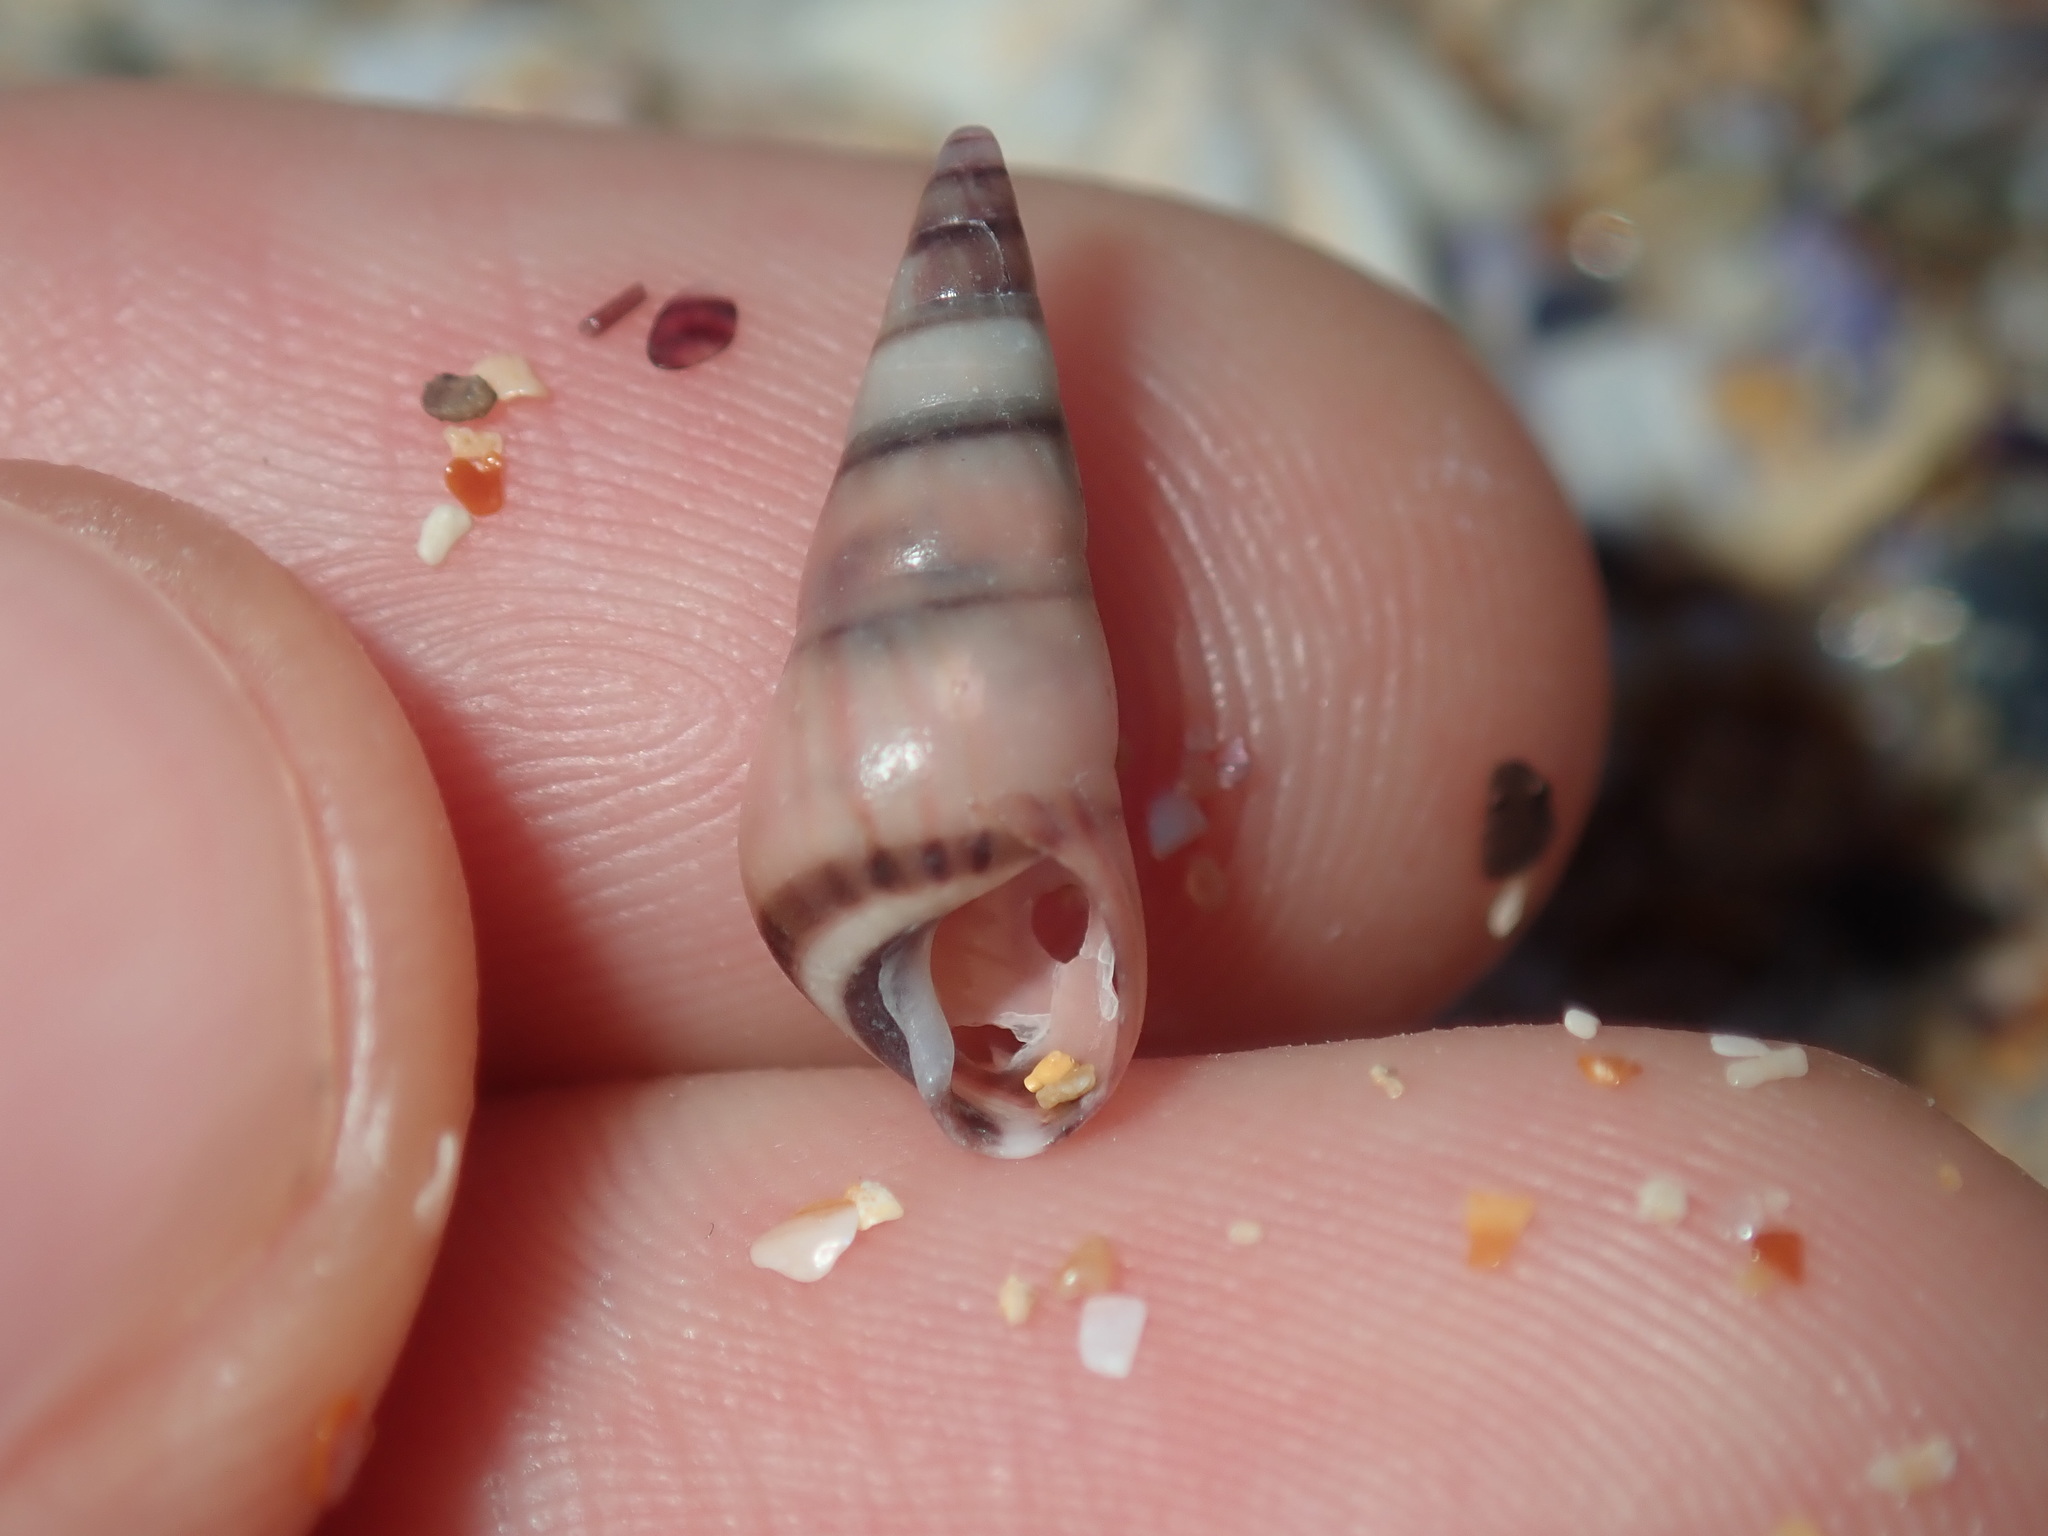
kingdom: Animalia
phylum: Mollusca
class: Gastropoda
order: Trochida
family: Trochidae
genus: Bankivia
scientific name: Bankivia fasciata
